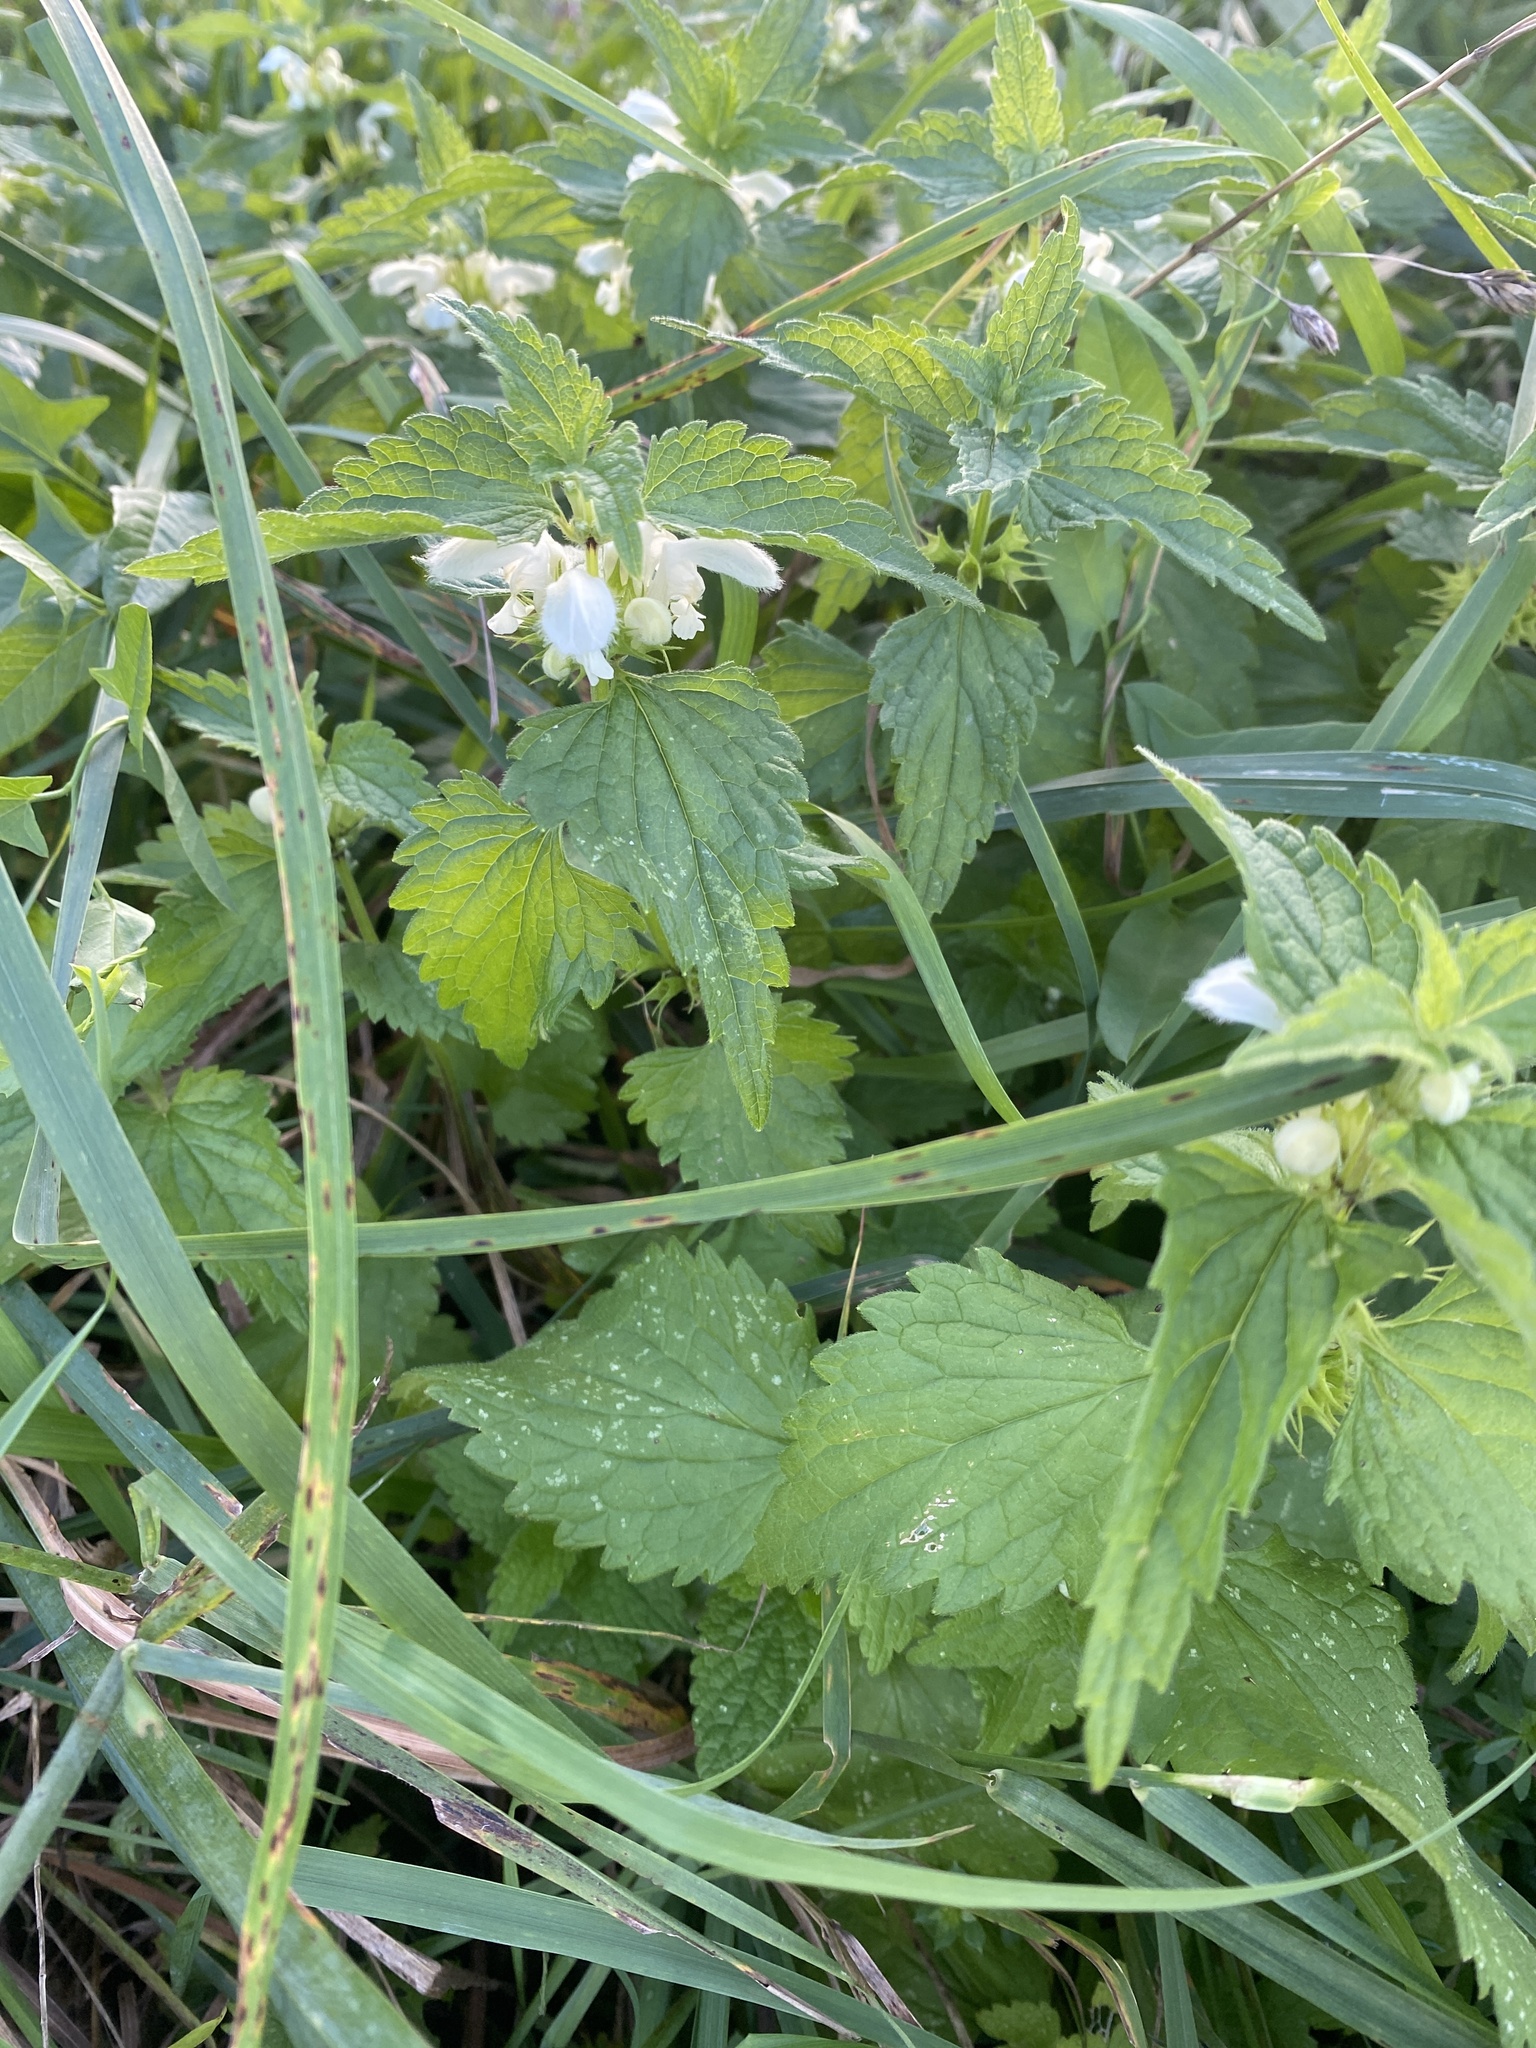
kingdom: Plantae
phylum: Tracheophyta
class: Magnoliopsida
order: Lamiales
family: Lamiaceae
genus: Lamium
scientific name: Lamium album
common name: White dead-nettle
